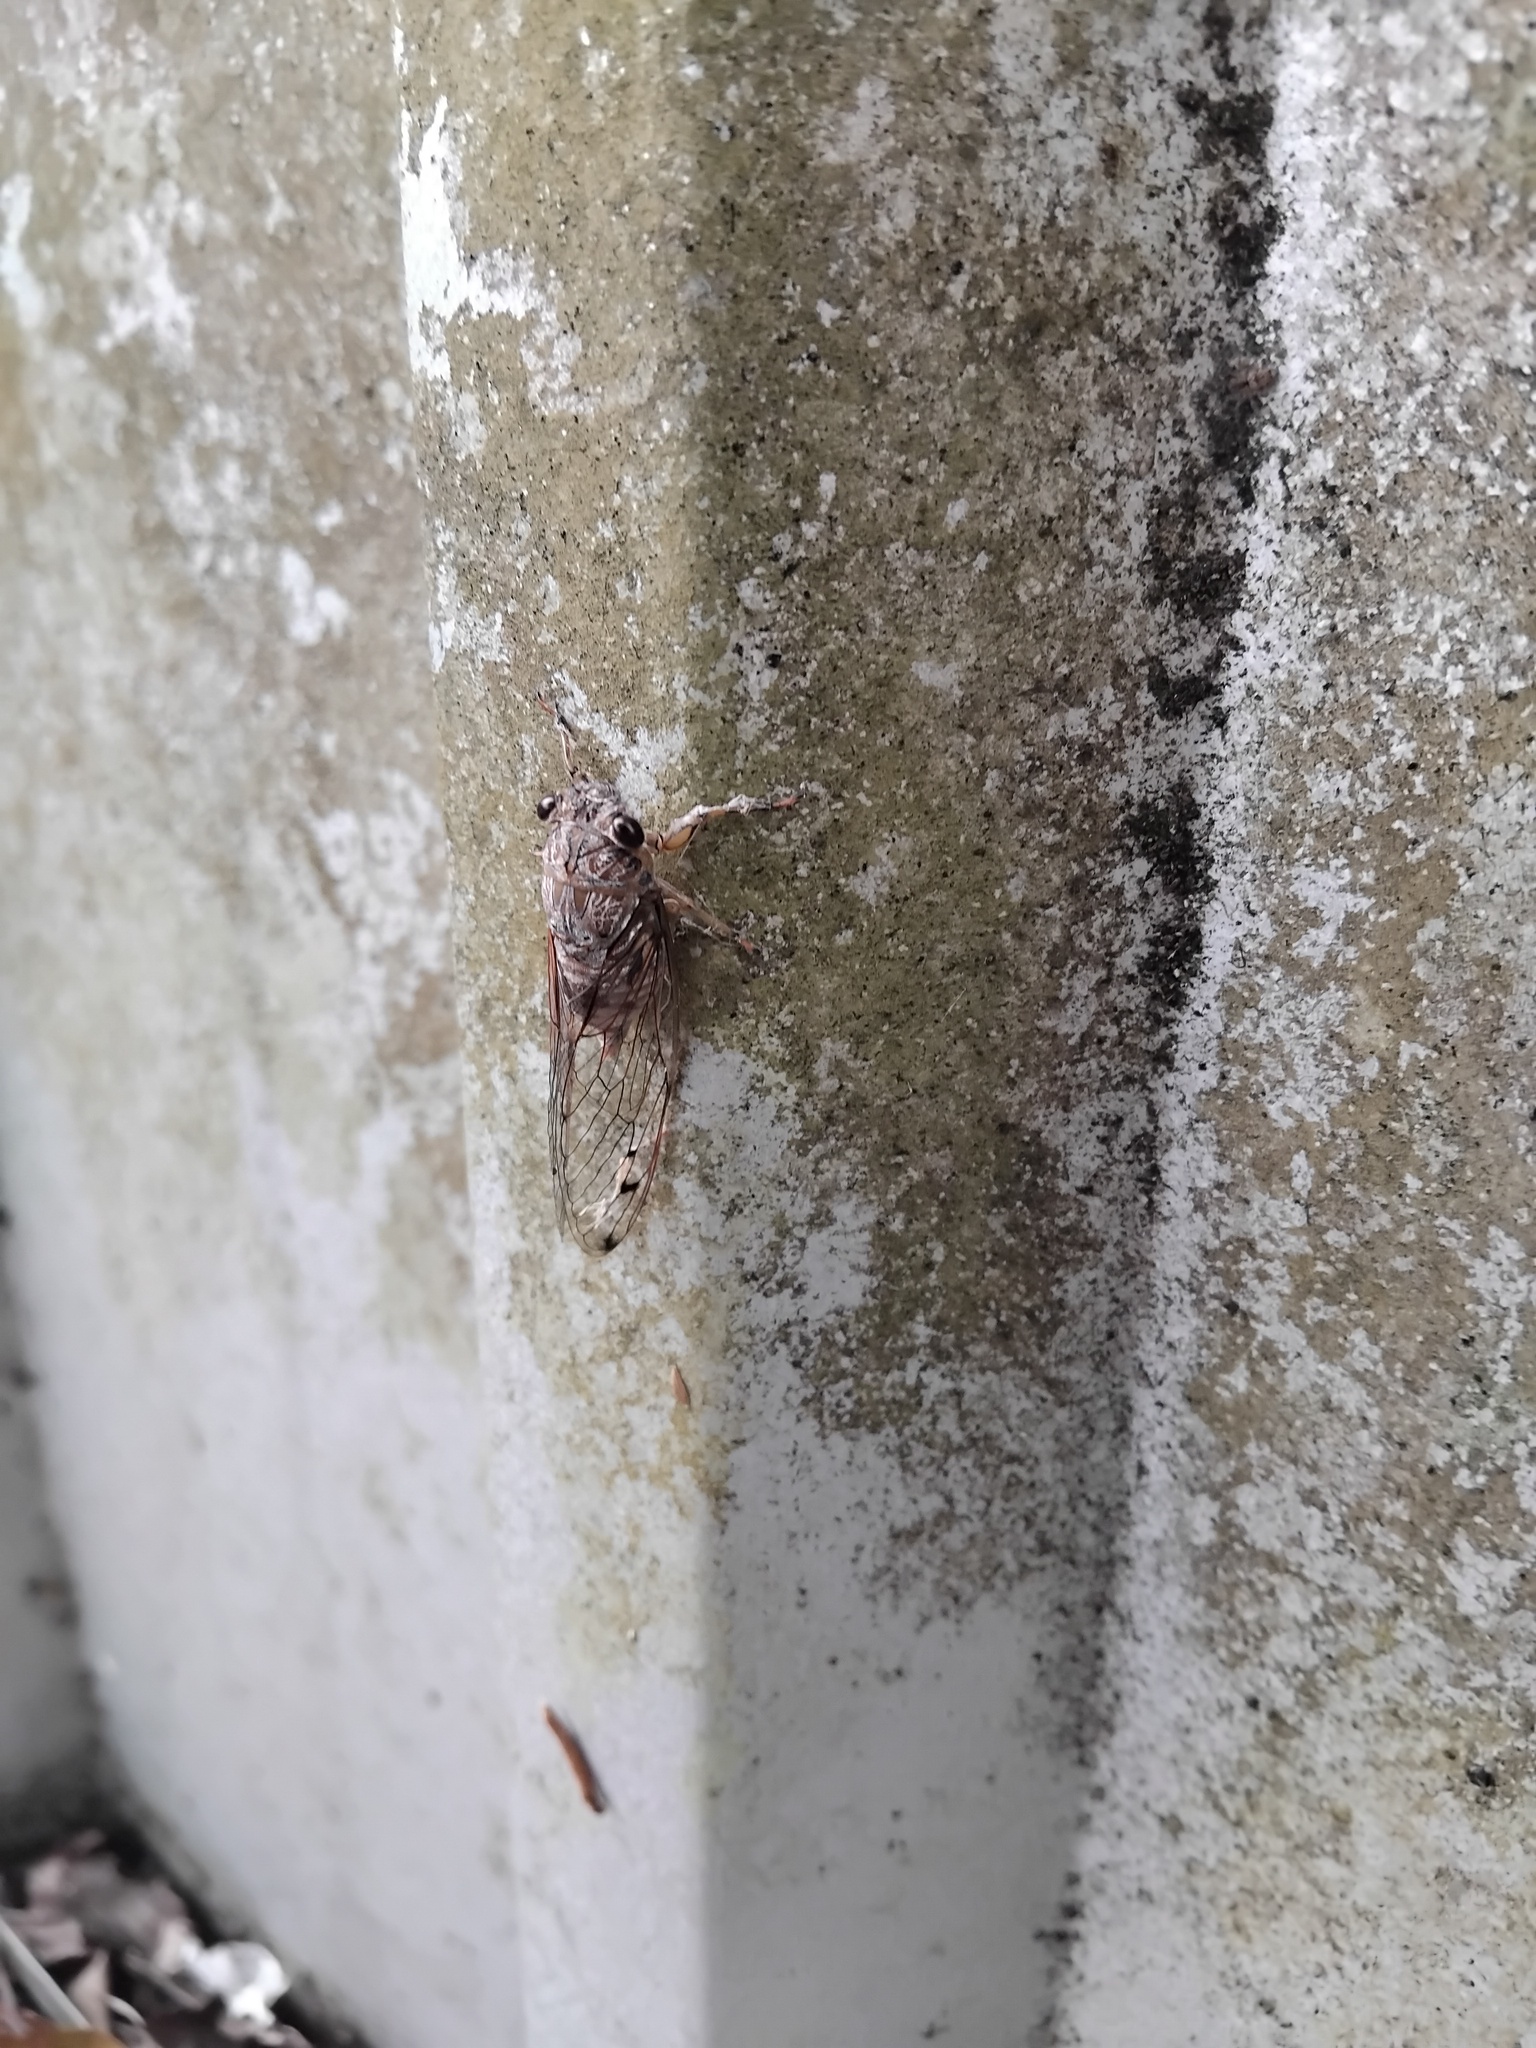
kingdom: Animalia
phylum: Arthropoda
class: Insecta
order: Hemiptera
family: Cicadidae
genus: Tamasa
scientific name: Tamasa tristigma
